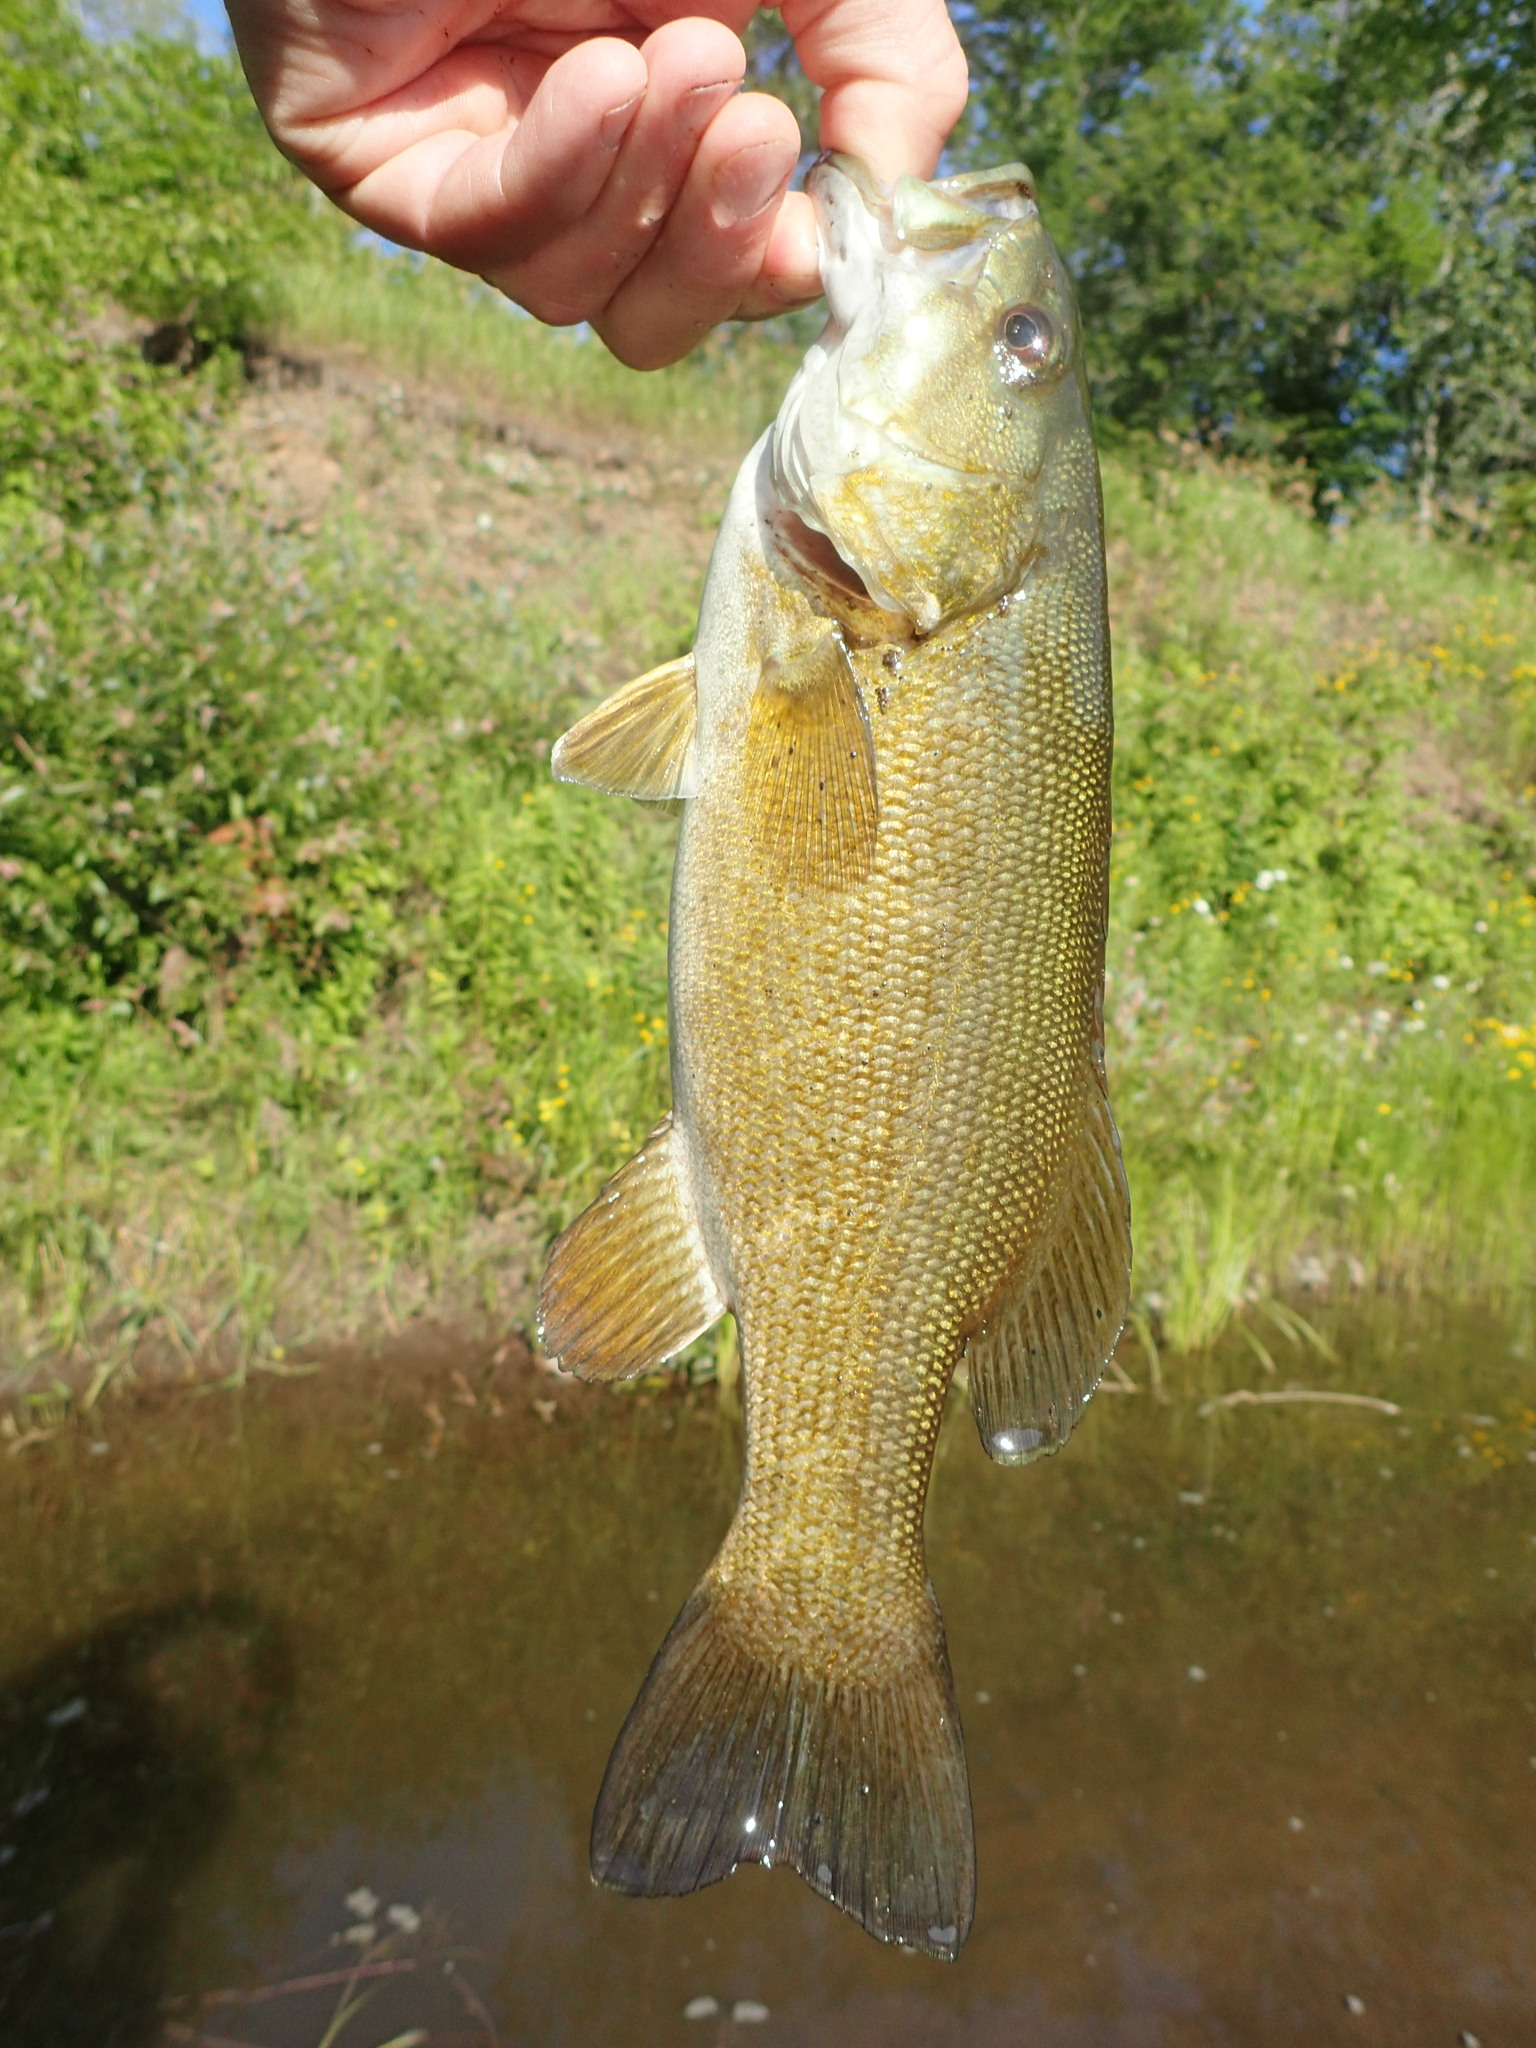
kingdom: Animalia
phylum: Chordata
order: Perciformes
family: Centrarchidae
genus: Micropterus
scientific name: Micropterus dolomieu
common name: Smallmouth bass
